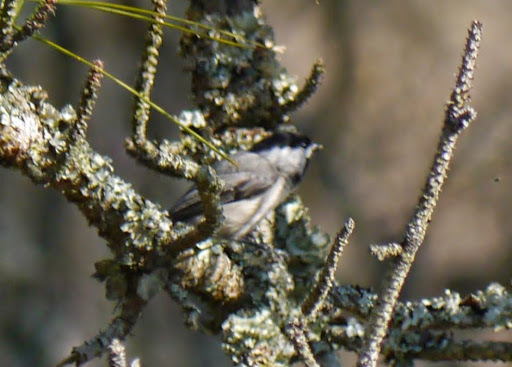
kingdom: Animalia
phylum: Chordata
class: Aves
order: Passeriformes
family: Paridae
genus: Poecile
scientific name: Poecile carolinensis
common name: Carolina chickadee
